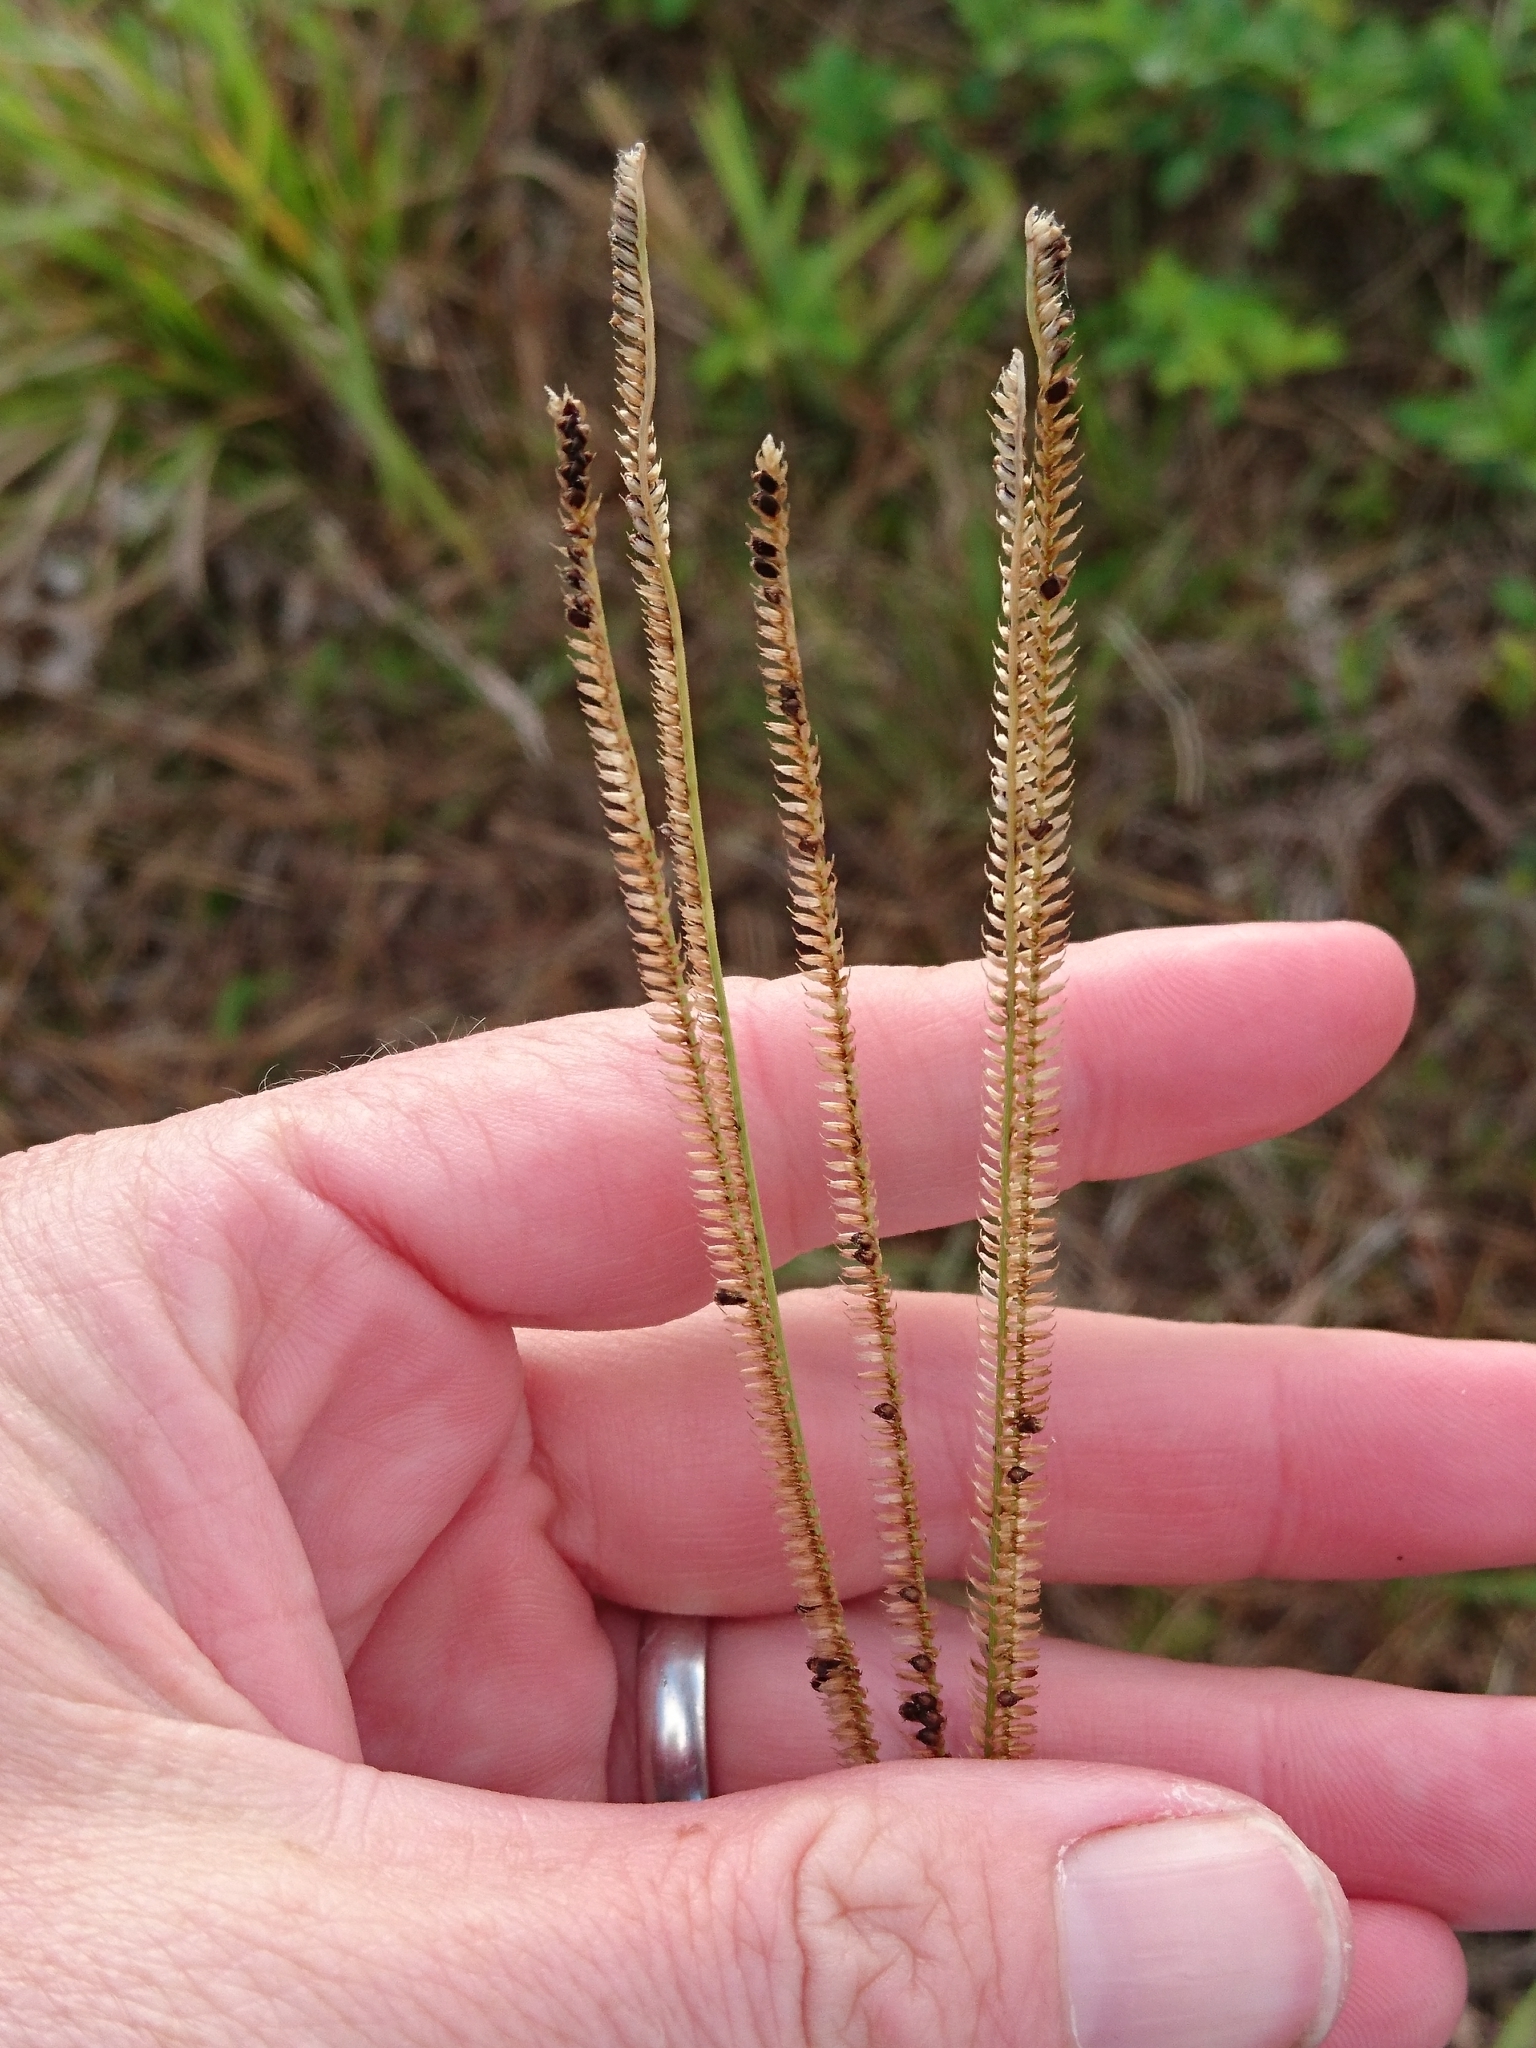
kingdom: Plantae
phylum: Tracheophyta
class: Liliopsida
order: Poales
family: Poaceae
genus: Eustachys
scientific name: Eustachys petraea
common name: Pinewoods fingergrass
